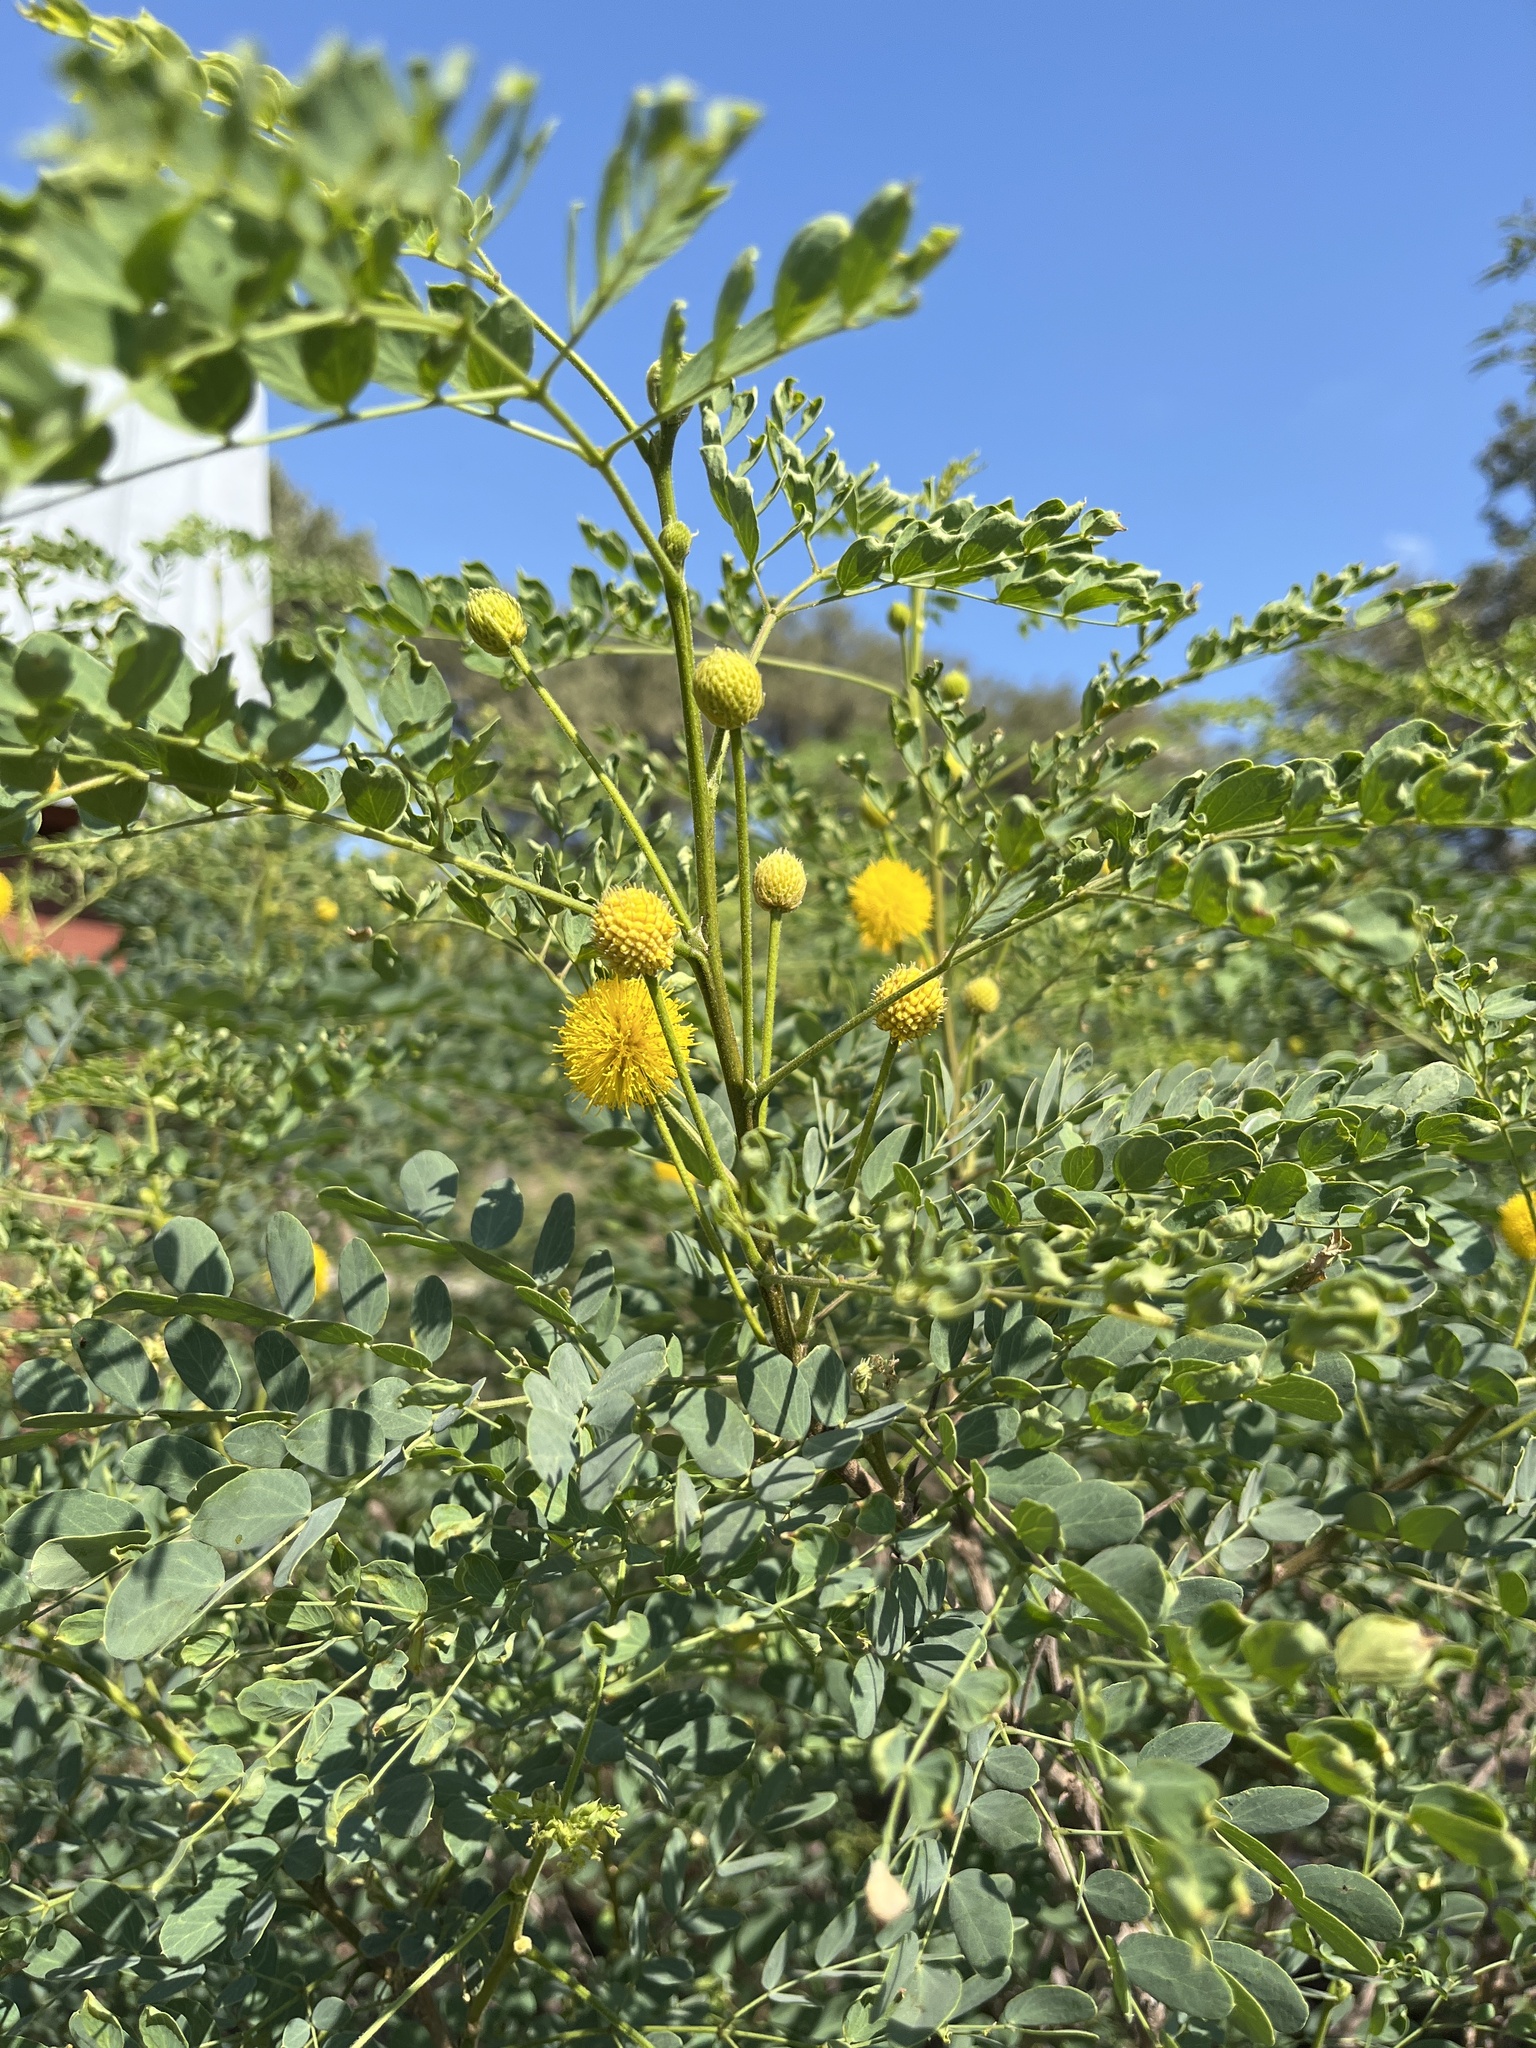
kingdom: Plantae
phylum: Tracheophyta
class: Magnoliopsida
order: Fabales
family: Fabaceae
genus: Leucaena
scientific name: Leucaena retusa
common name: Littleleaf leadtree
